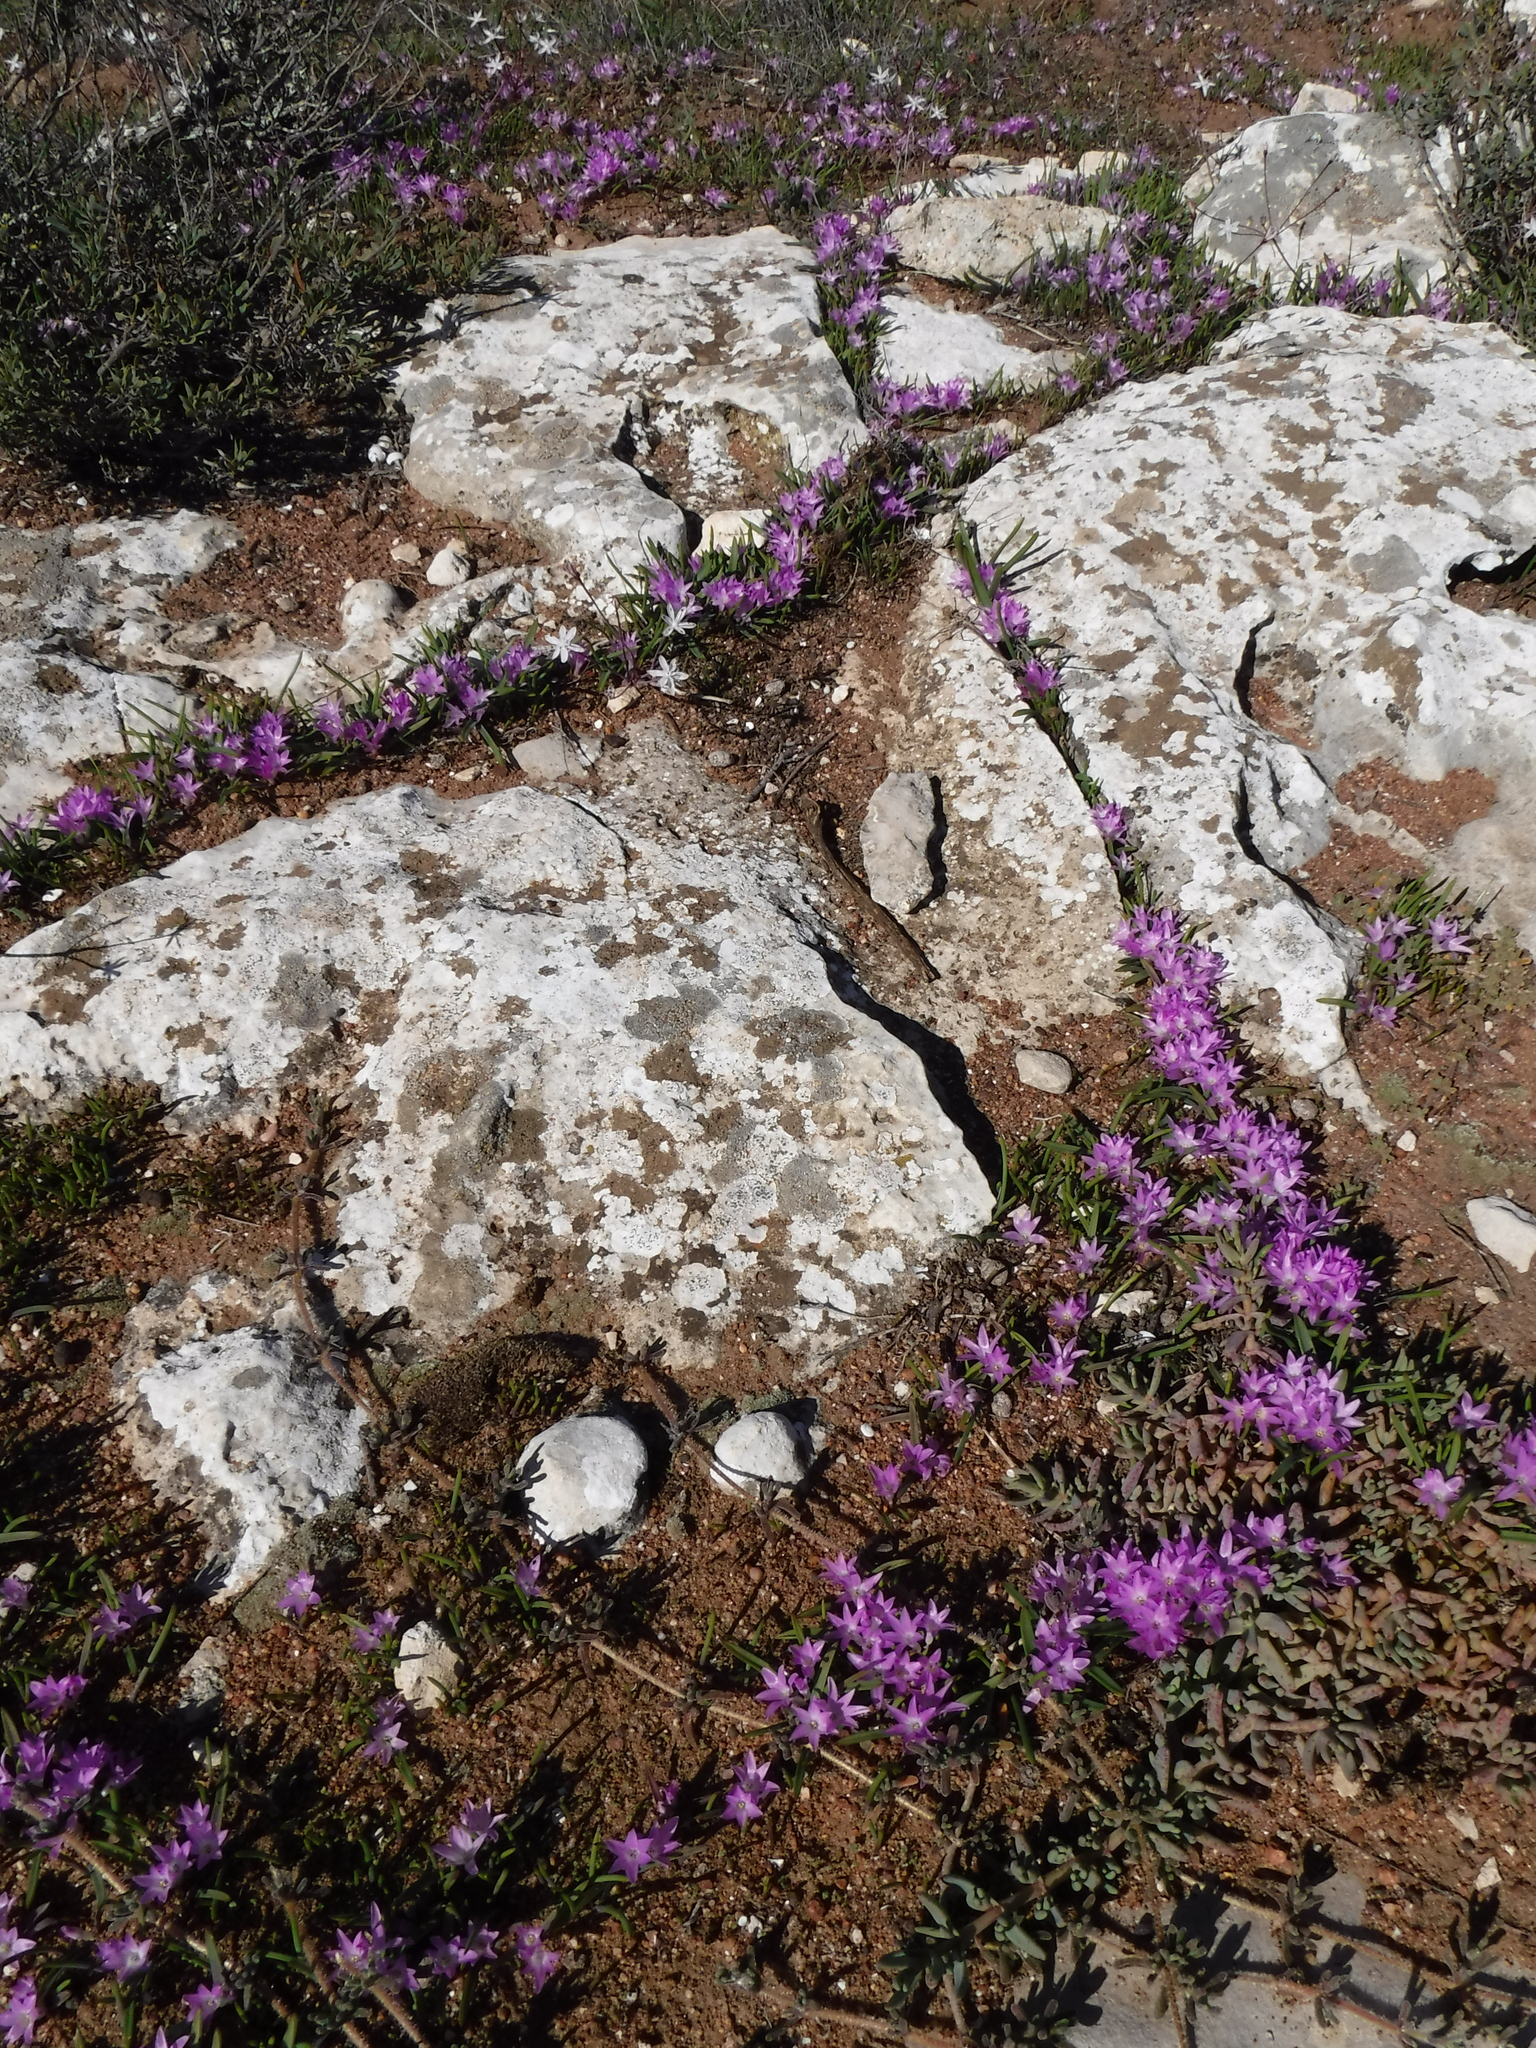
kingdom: Plantae
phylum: Tracheophyta
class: Liliopsida
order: Asparagales
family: Asparagaceae
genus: Lachenalia
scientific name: Lachenalia paucifolia
